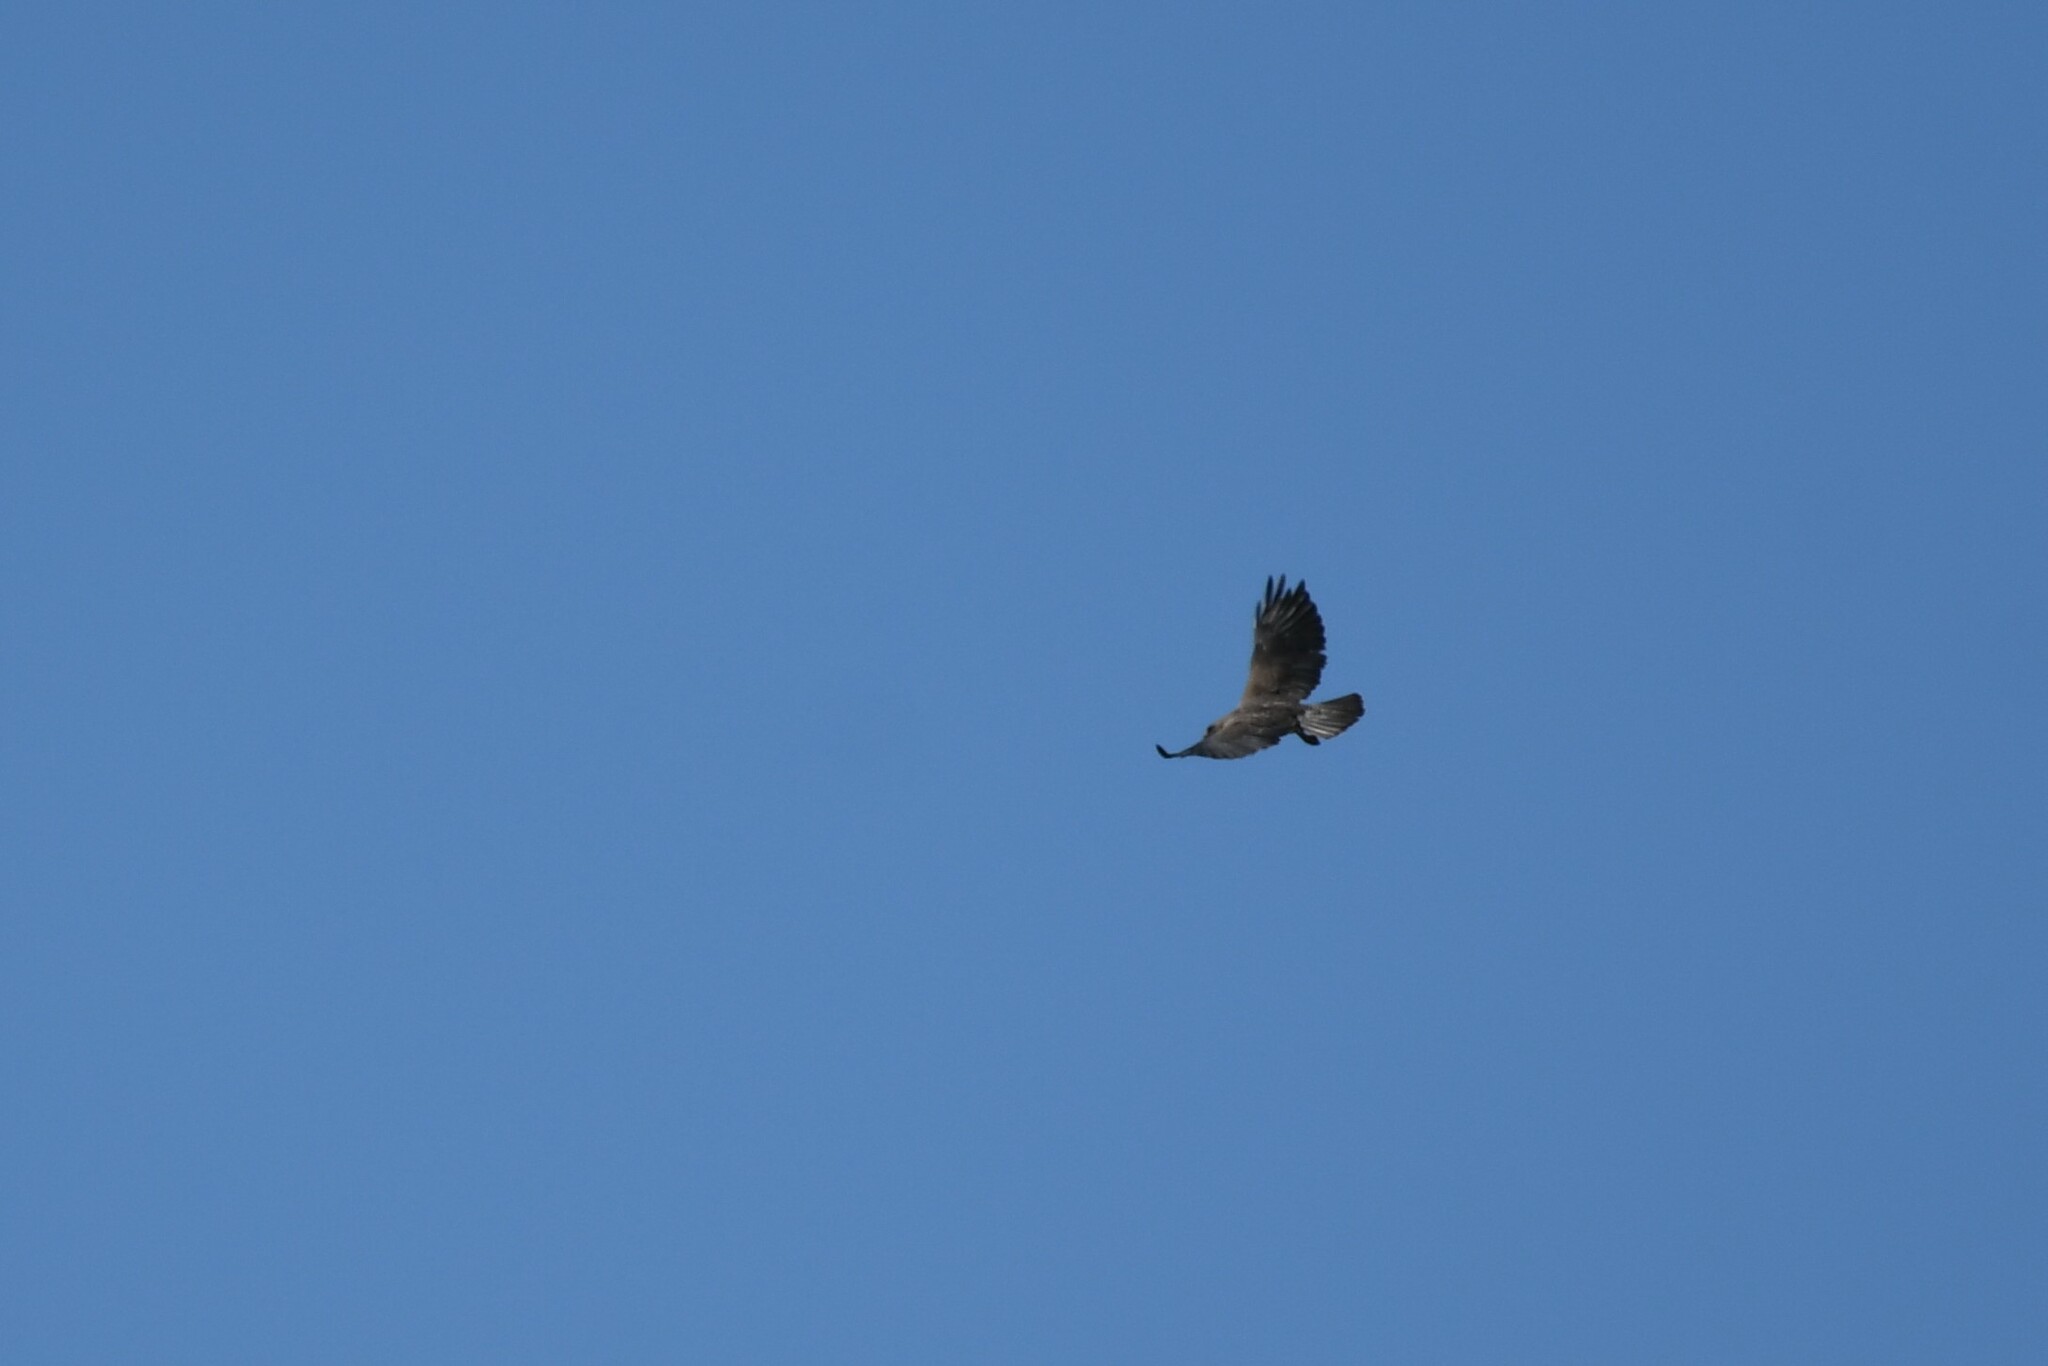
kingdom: Animalia
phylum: Chordata
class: Aves
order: Accipitriformes
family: Accipitridae
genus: Buteo
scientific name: Buteo swainsoni
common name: Swainson's hawk
